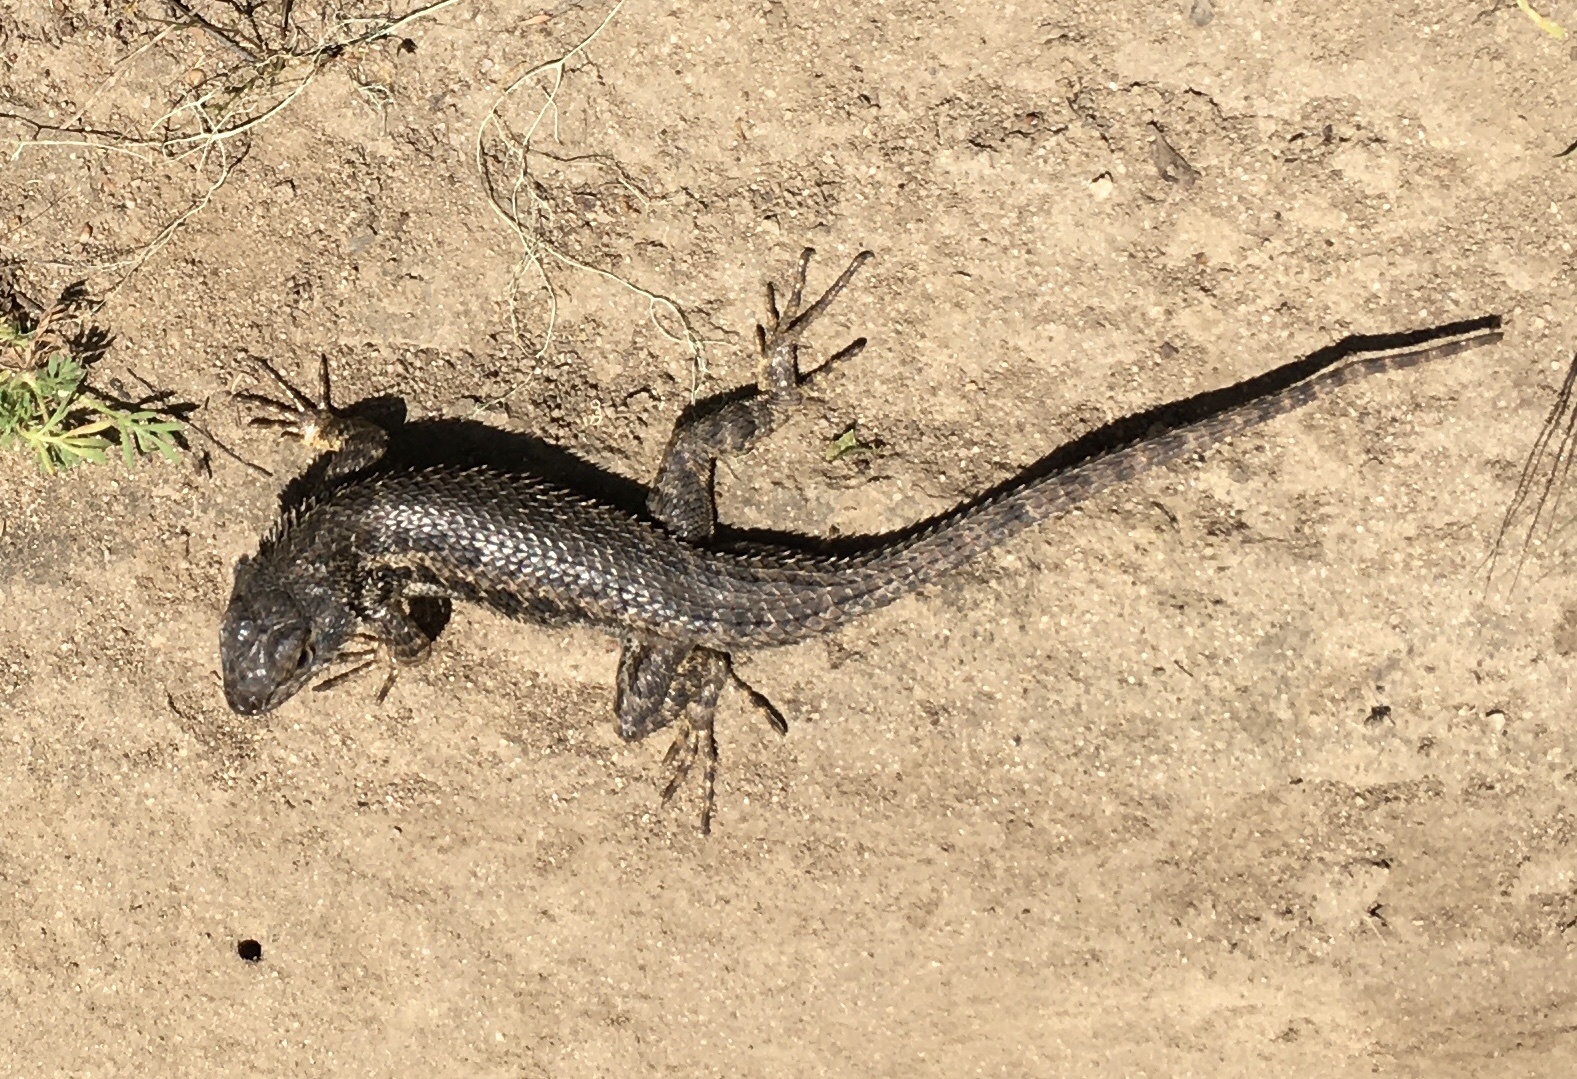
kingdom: Animalia
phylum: Chordata
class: Squamata
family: Phrynosomatidae
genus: Sceloporus
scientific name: Sceloporus occidentalis
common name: Western fence lizard
